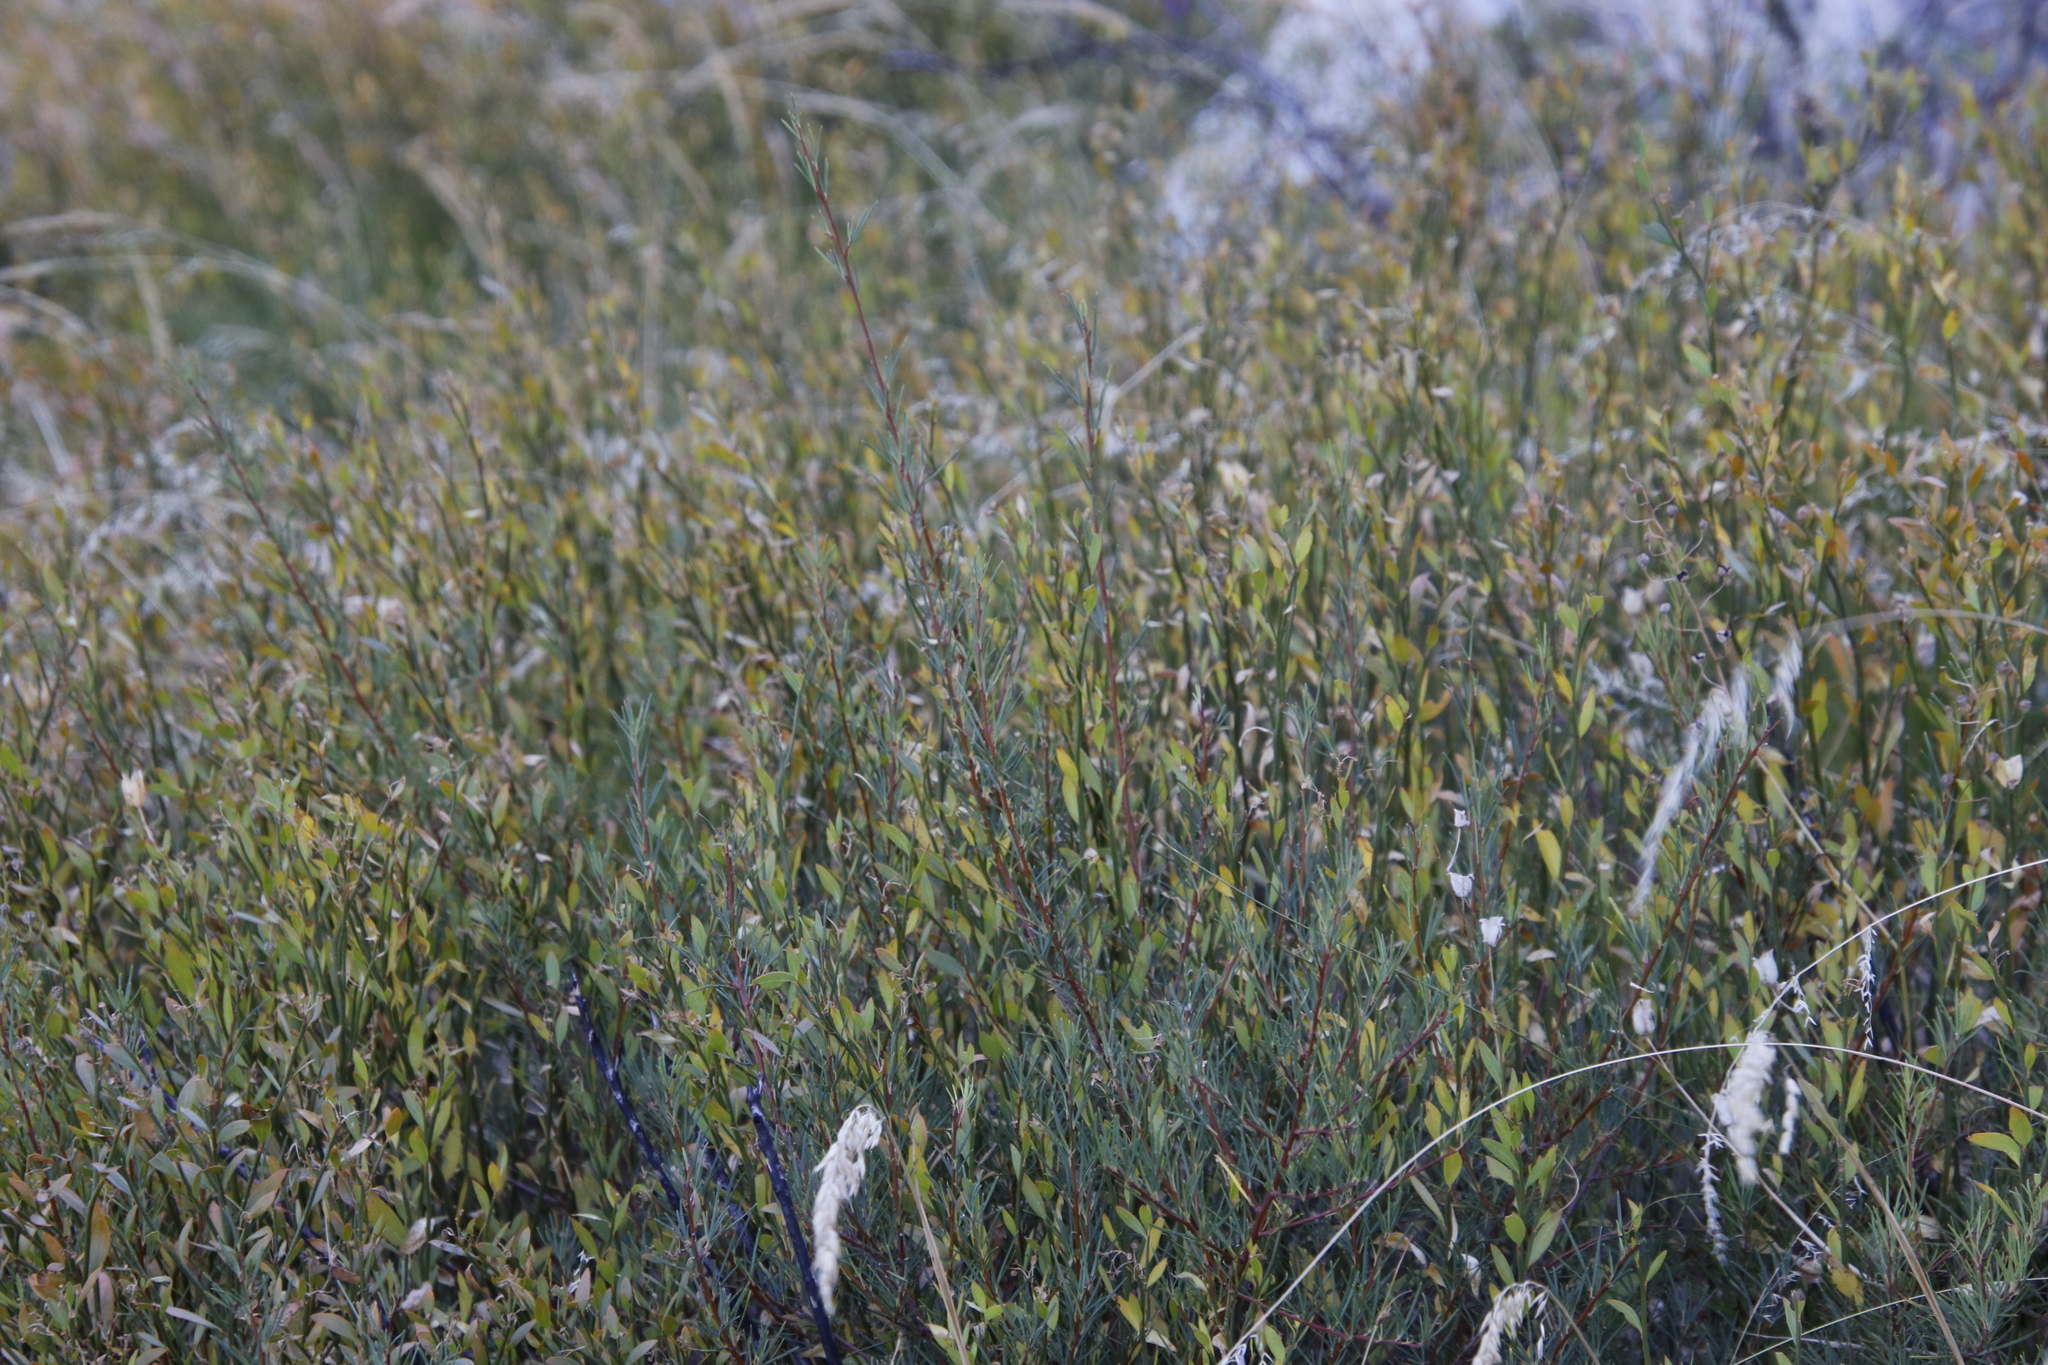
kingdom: Plantae
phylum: Tracheophyta
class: Magnoliopsida
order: Solanales
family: Montiniaceae
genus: Montinia
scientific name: Montinia caryophyllacea
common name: Wild clove-bush
